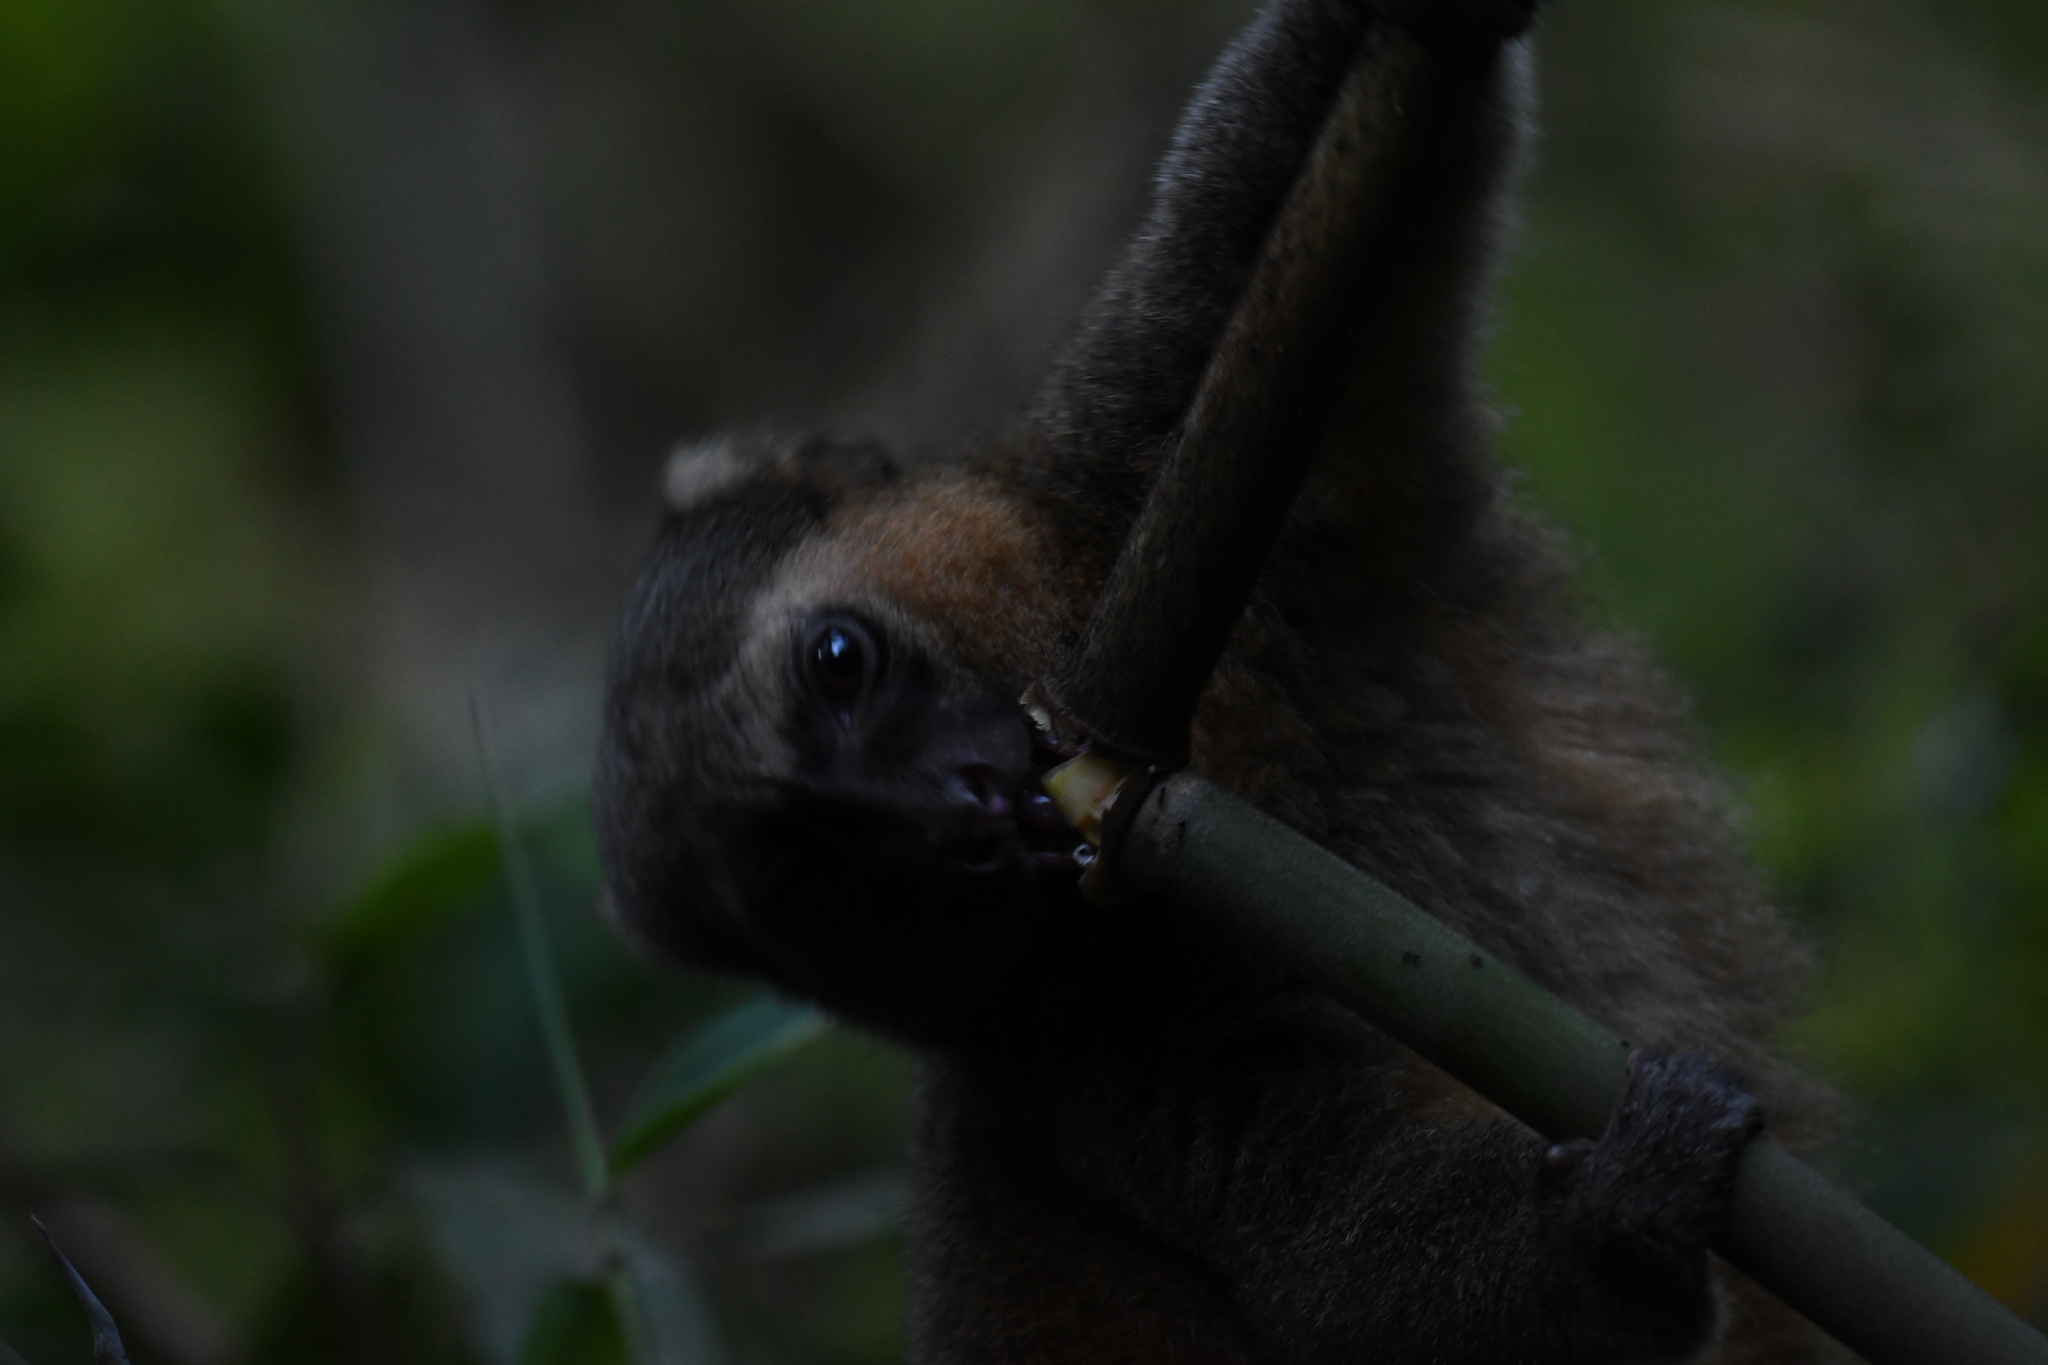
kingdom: Animalia
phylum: Chordata
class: Mammalia
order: Primates
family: Lemuridae
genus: Hapalemur
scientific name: Hapalemur aureus
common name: Golden bamboo lemur
